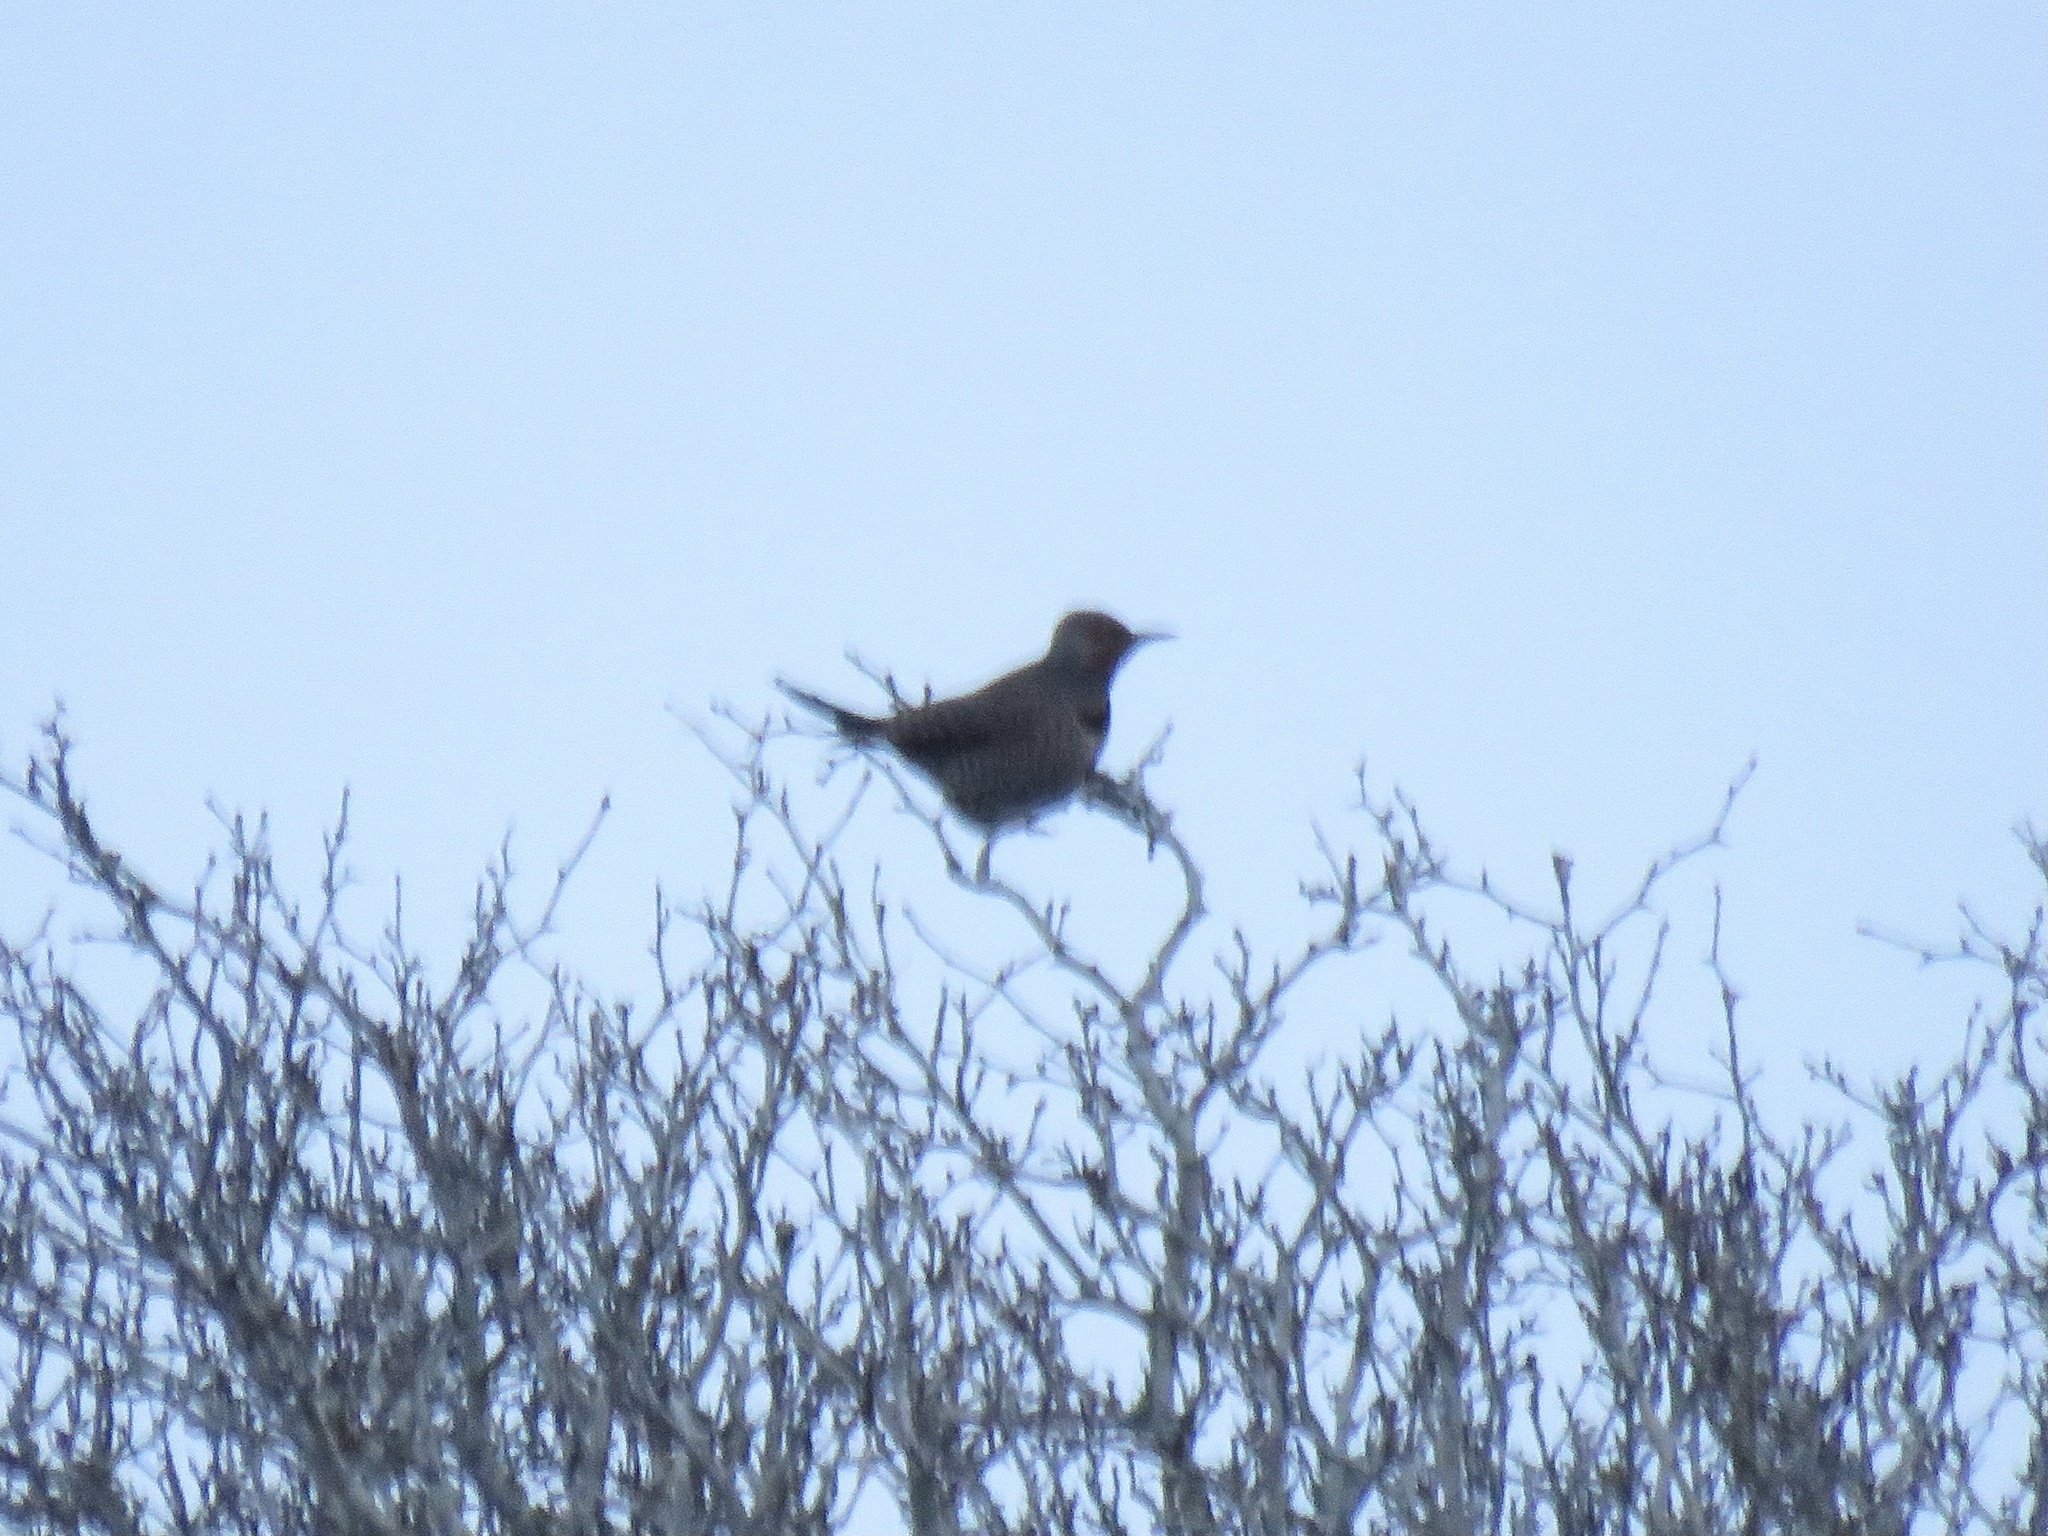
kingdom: Animalia
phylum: Chordata
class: Aves
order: Piciformes
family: Picidae
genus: Colaptes
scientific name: Colaptes auratus
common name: Northern flicker
